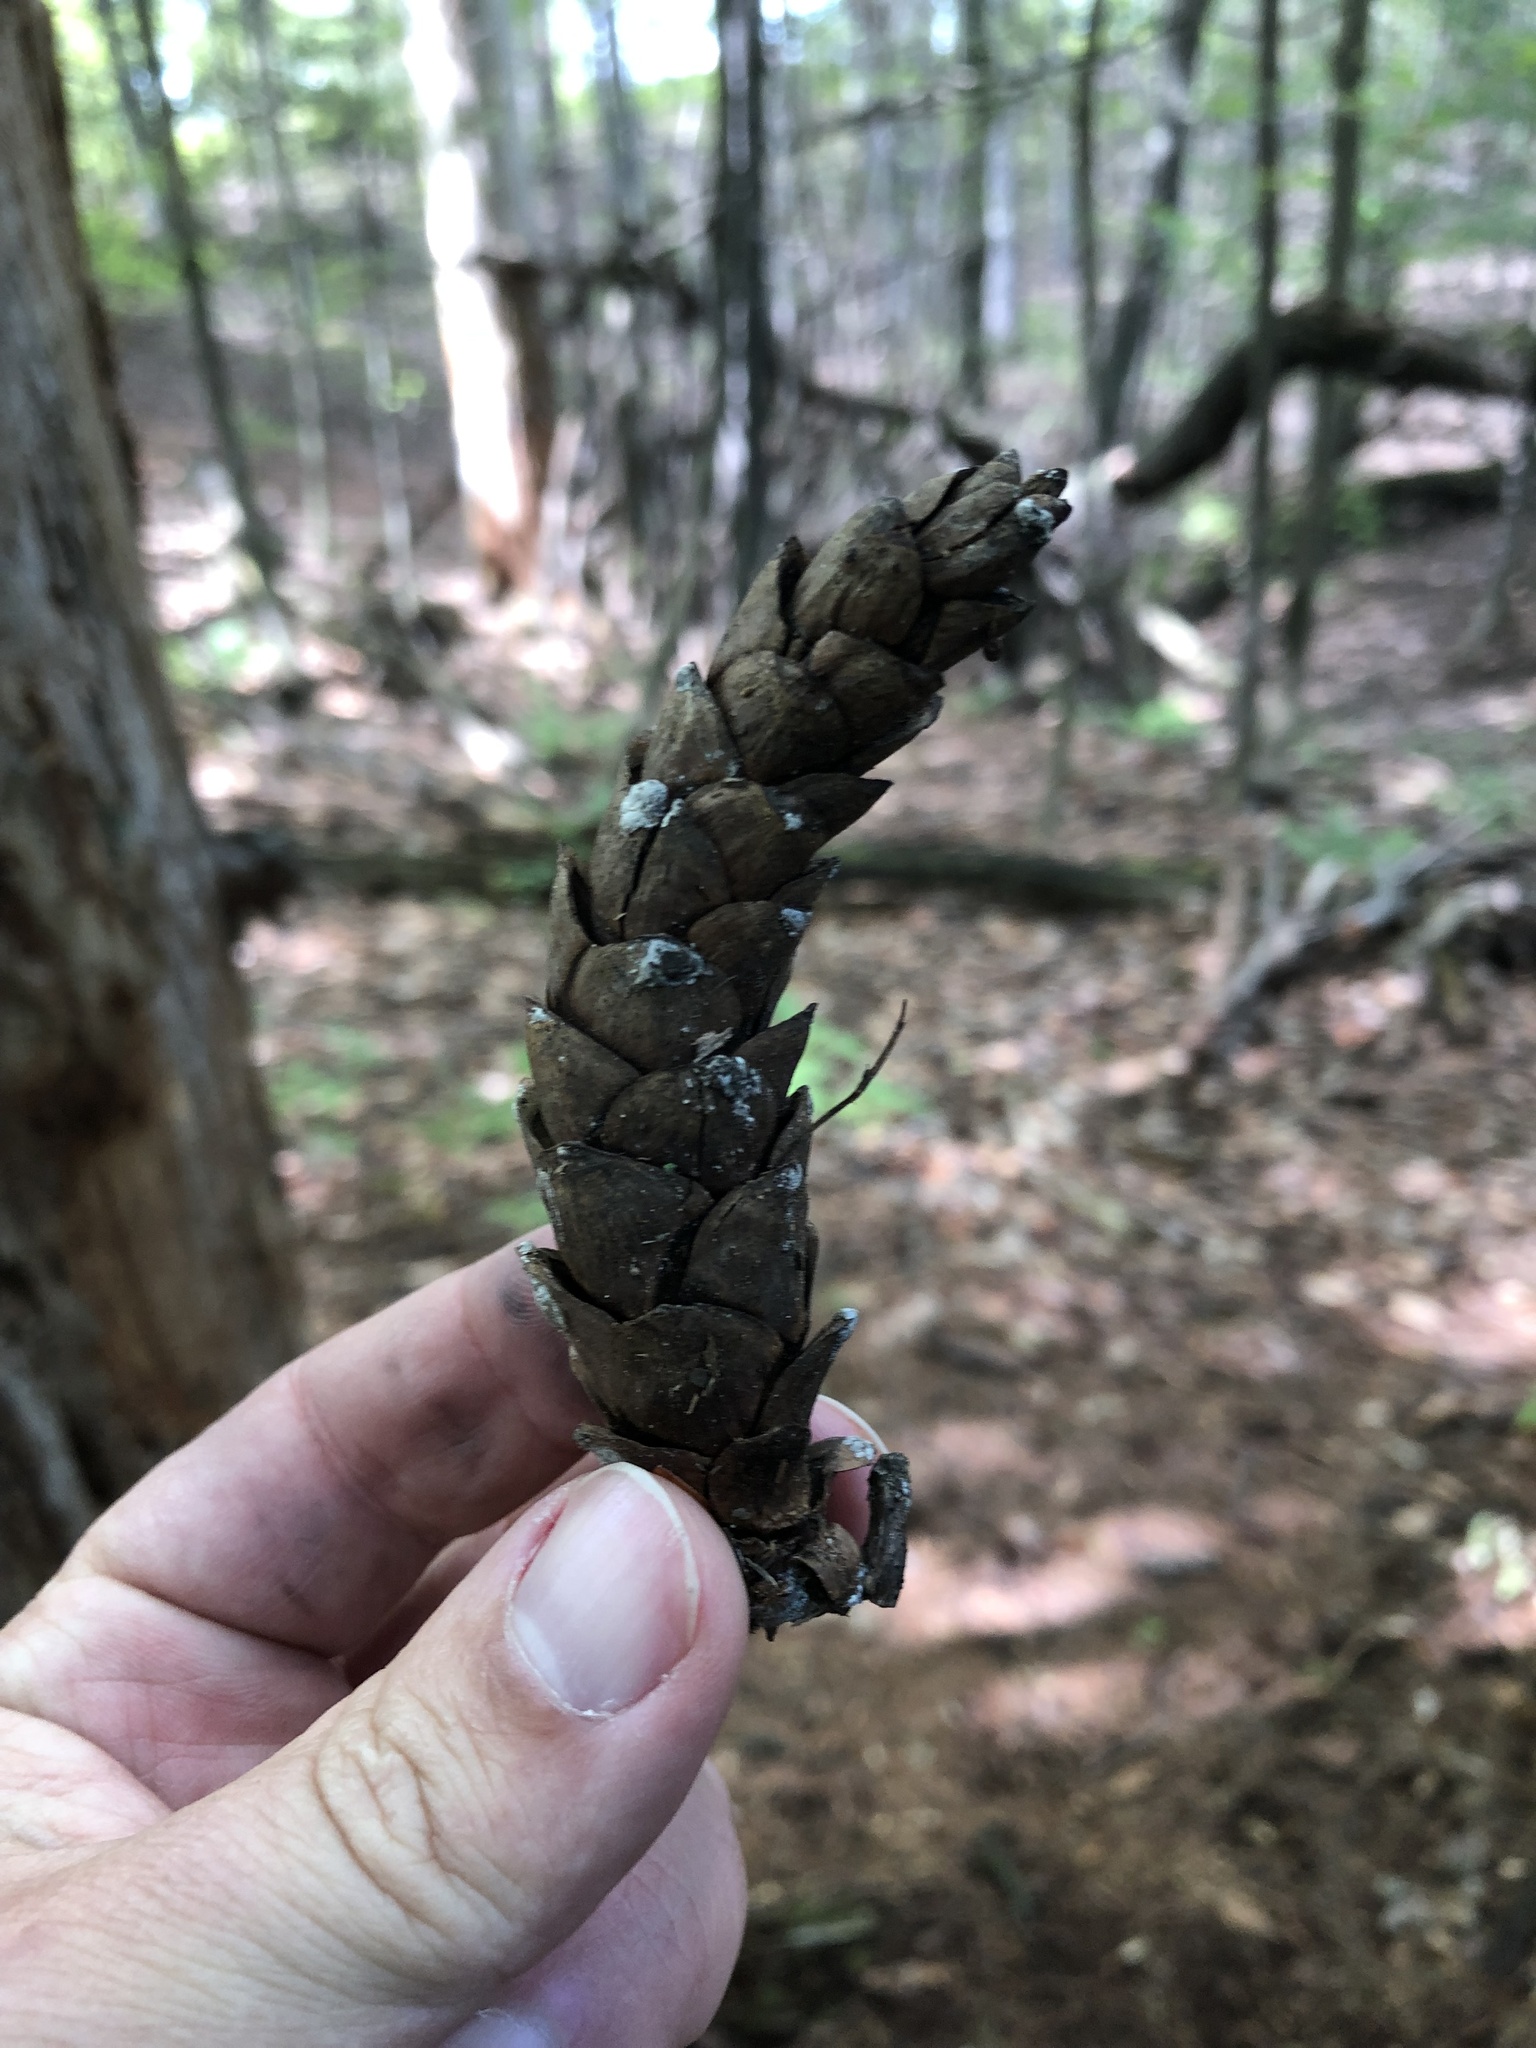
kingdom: Plantae
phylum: Tracheophyta
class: Pinopsida
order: Pinales
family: Pinaceae
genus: Pinus
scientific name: Pinus strobus
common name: Weymouth pine
